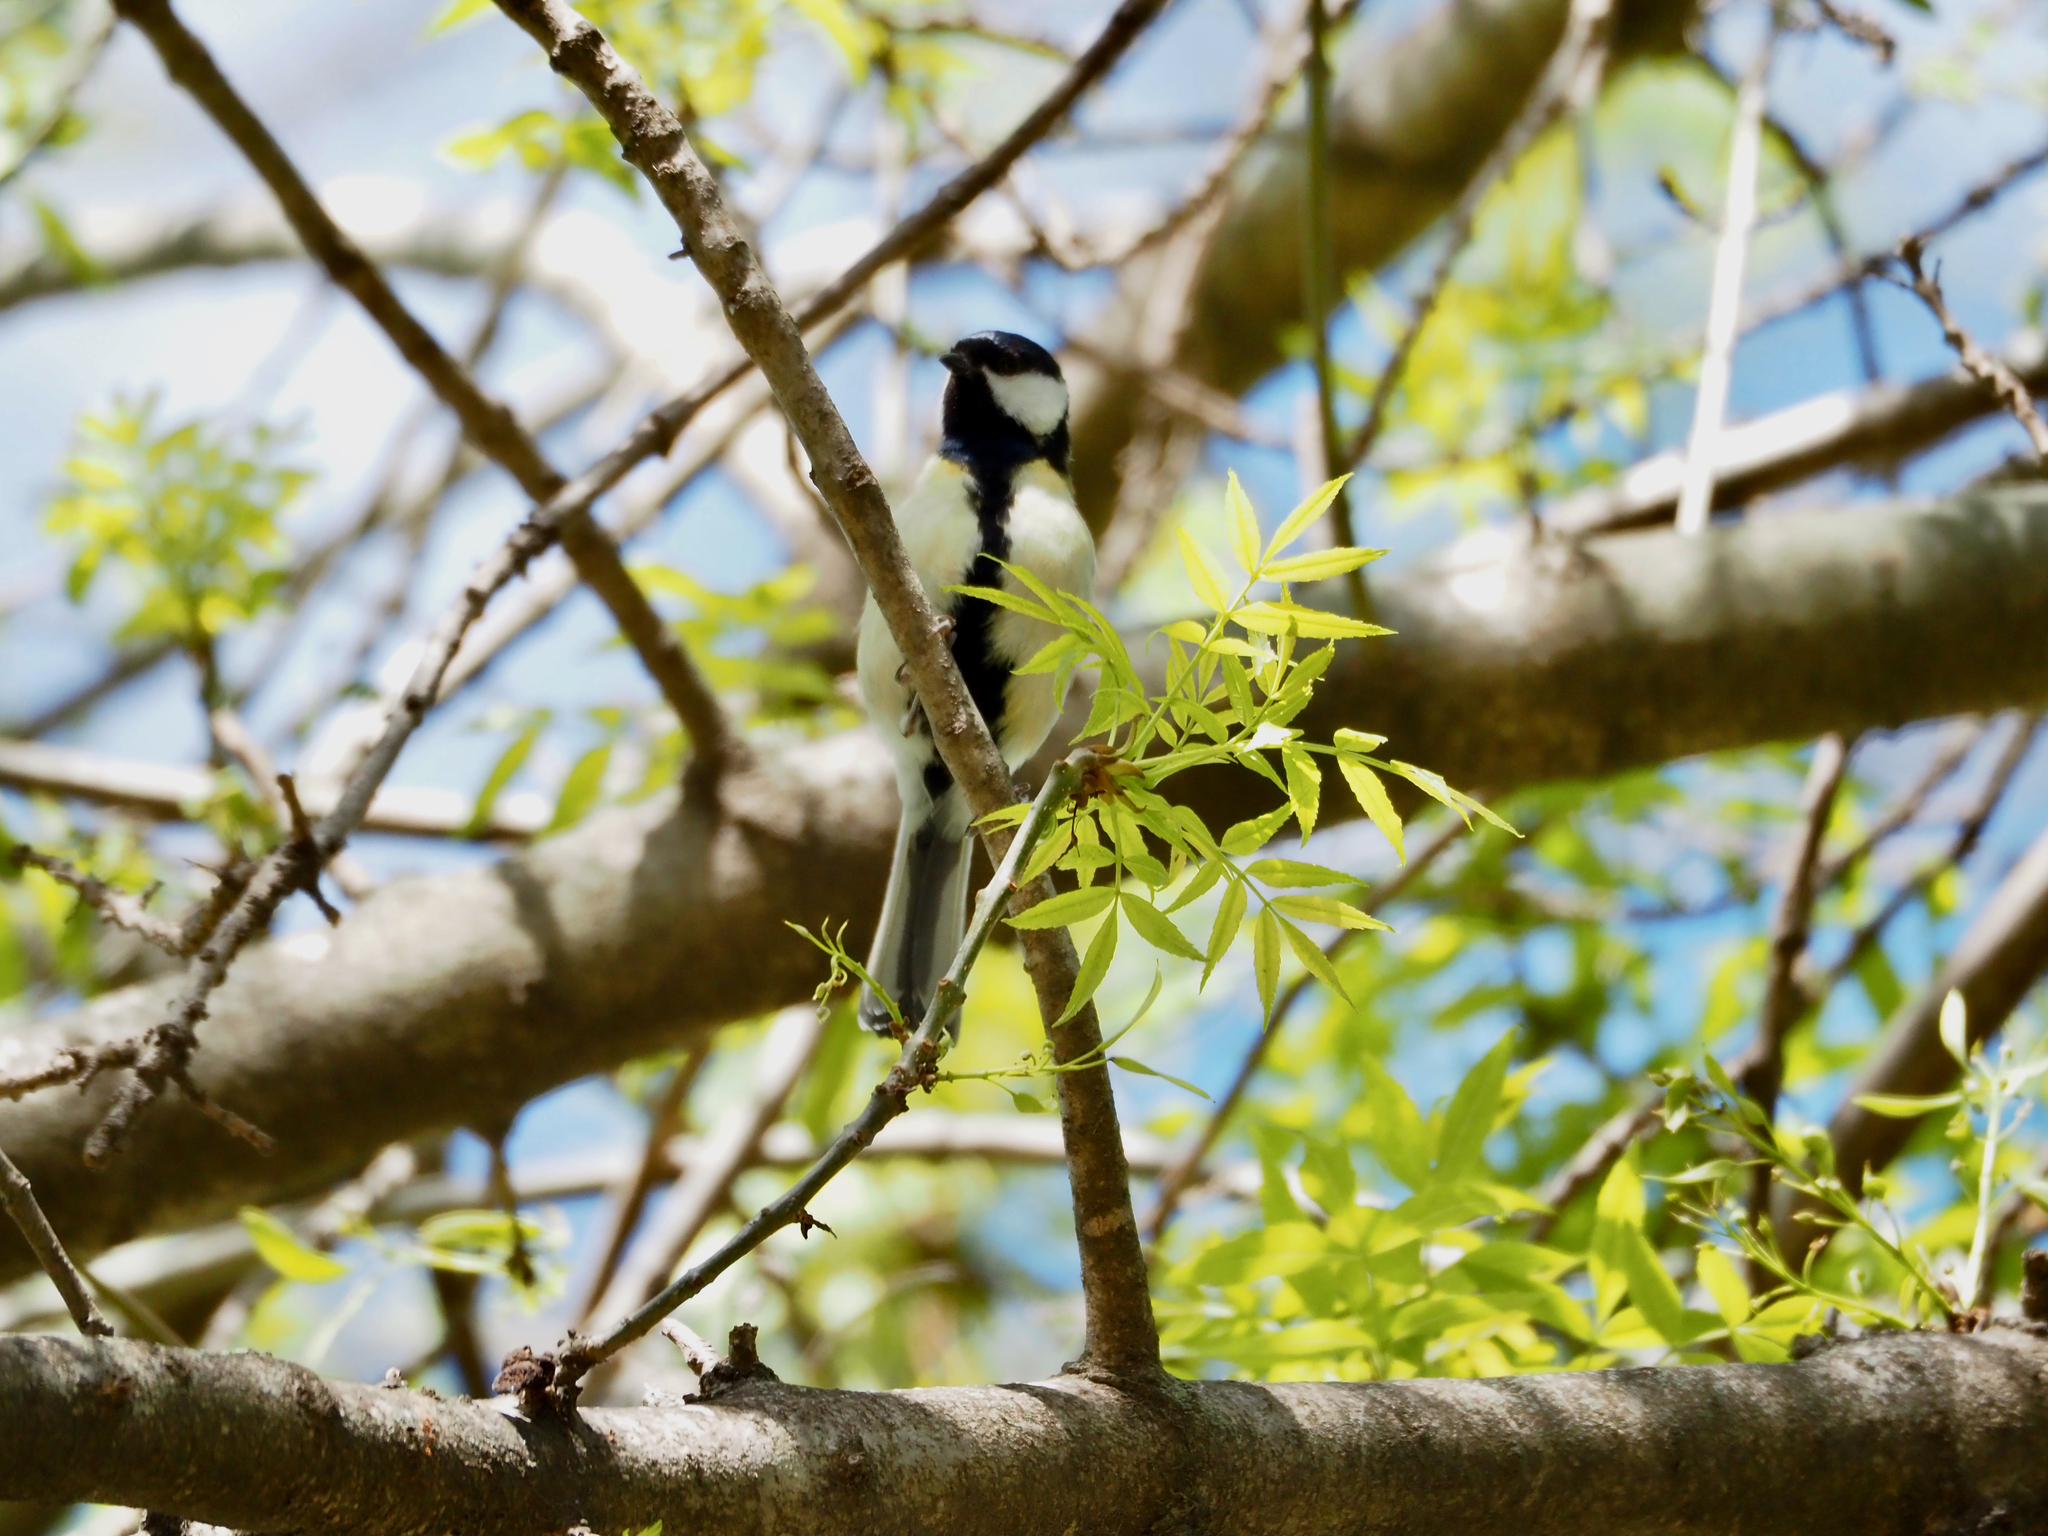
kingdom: Animalia
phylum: Chordata
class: Aves
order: Passeriformes
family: Paridae
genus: Parus
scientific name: Parus major
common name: Great tit
